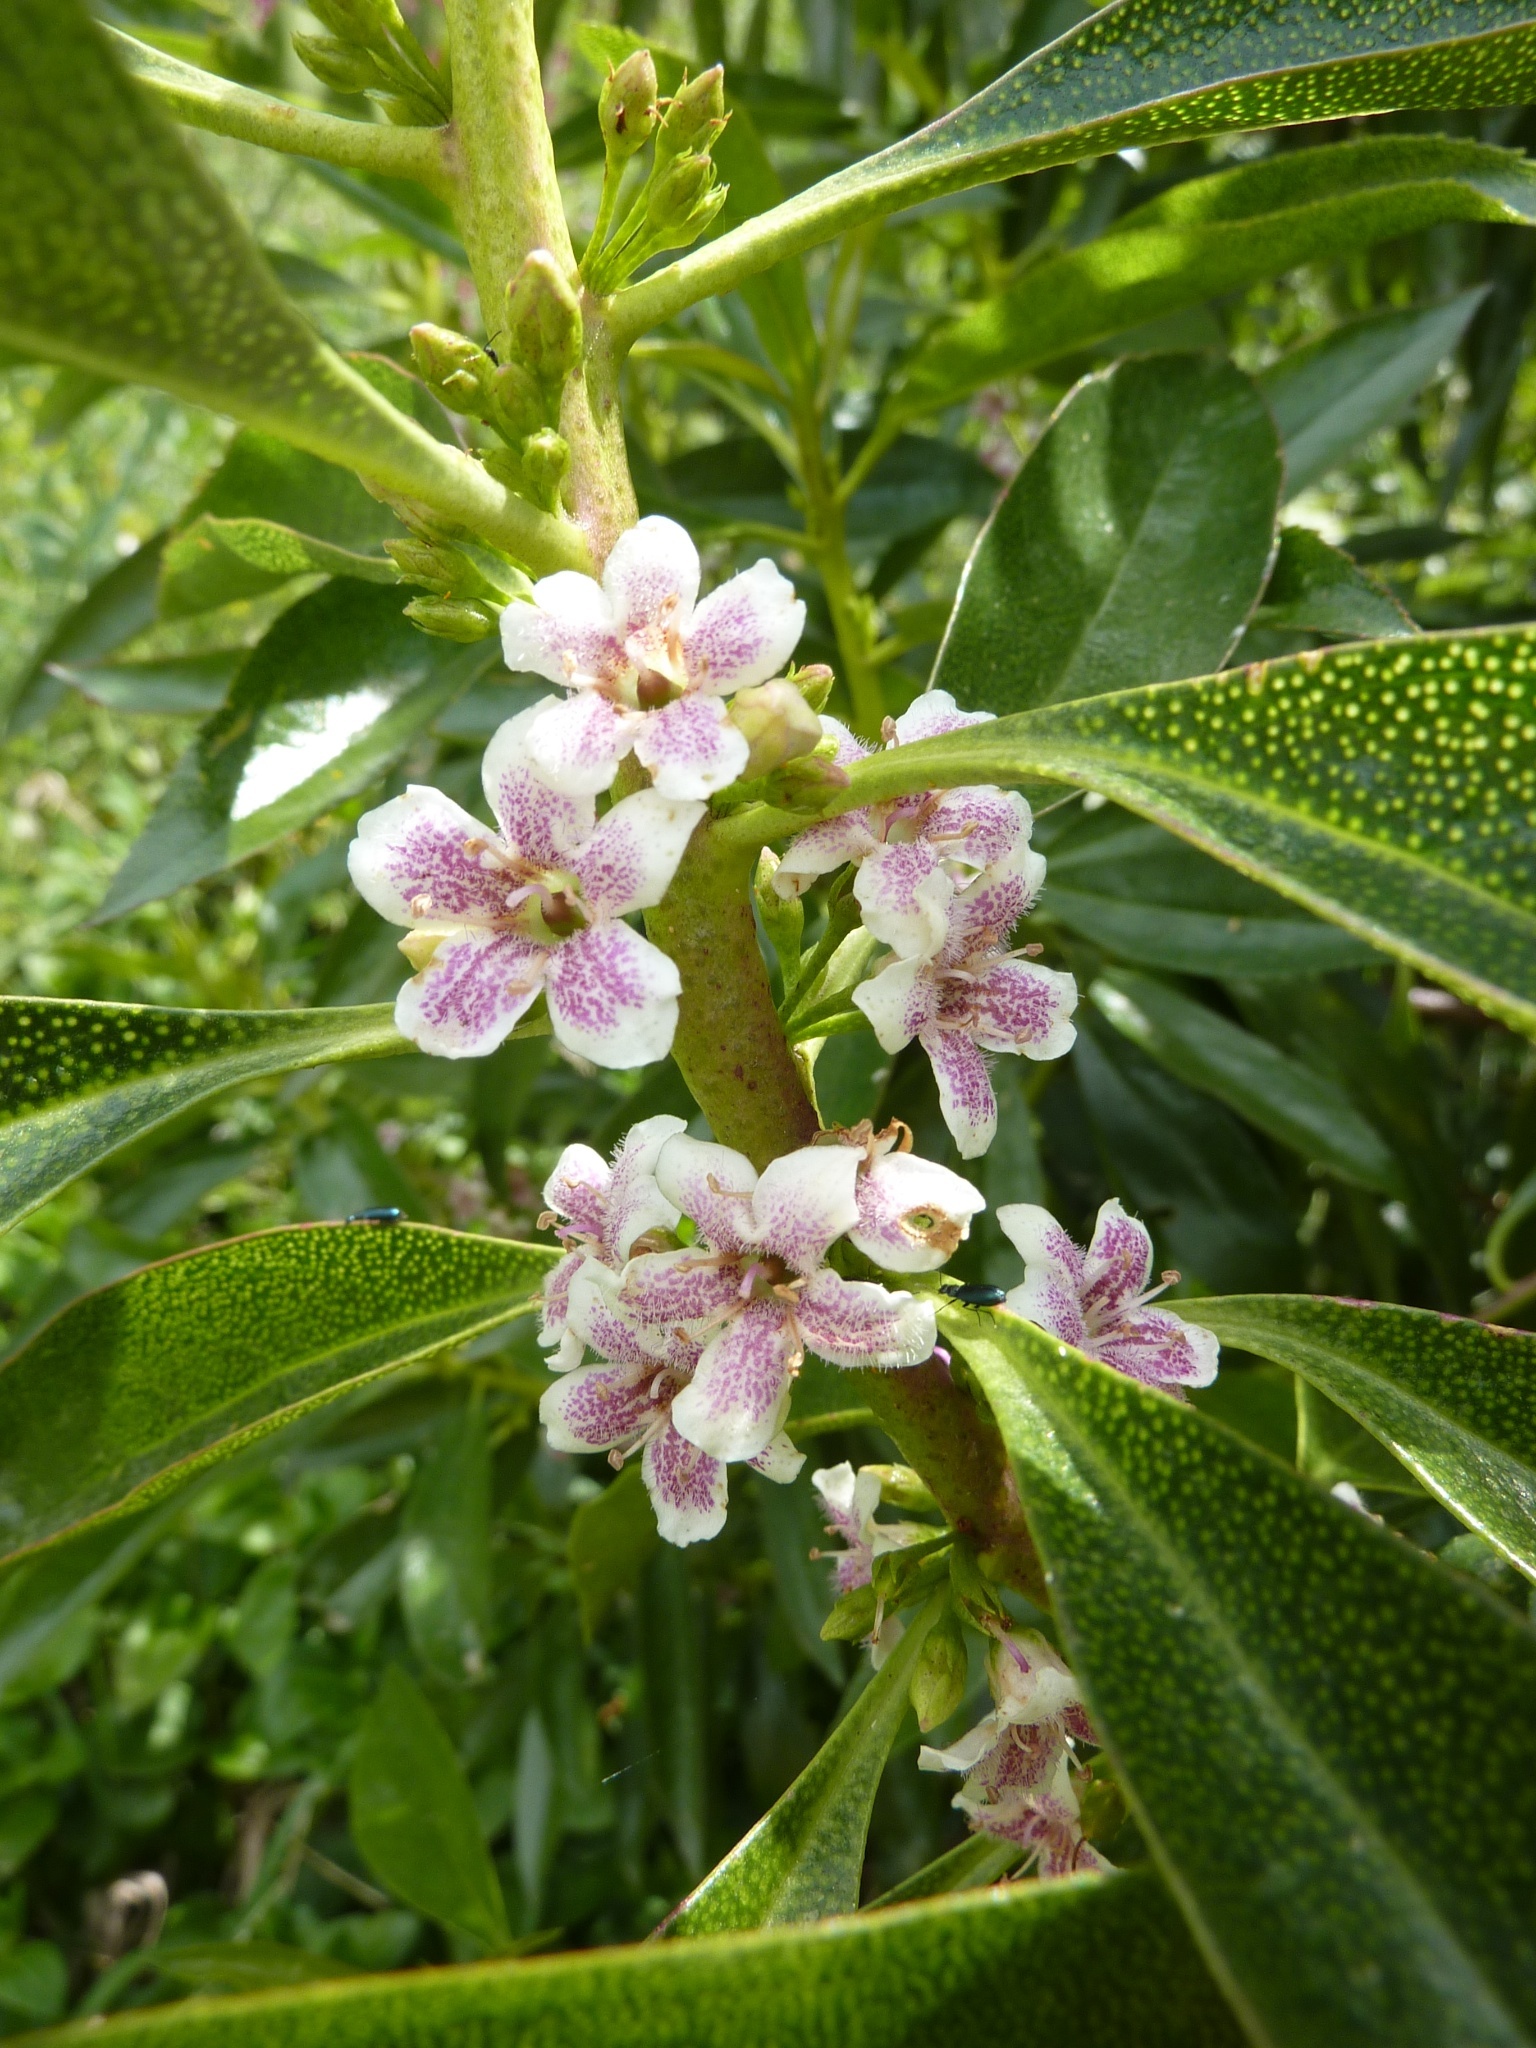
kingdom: Plantae
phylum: Tracheophyta
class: Magnoliopsida
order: Lamiales
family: Scrophulariaceae
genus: Myoporum
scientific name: Myoporum laetum
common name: Ngaio tree
